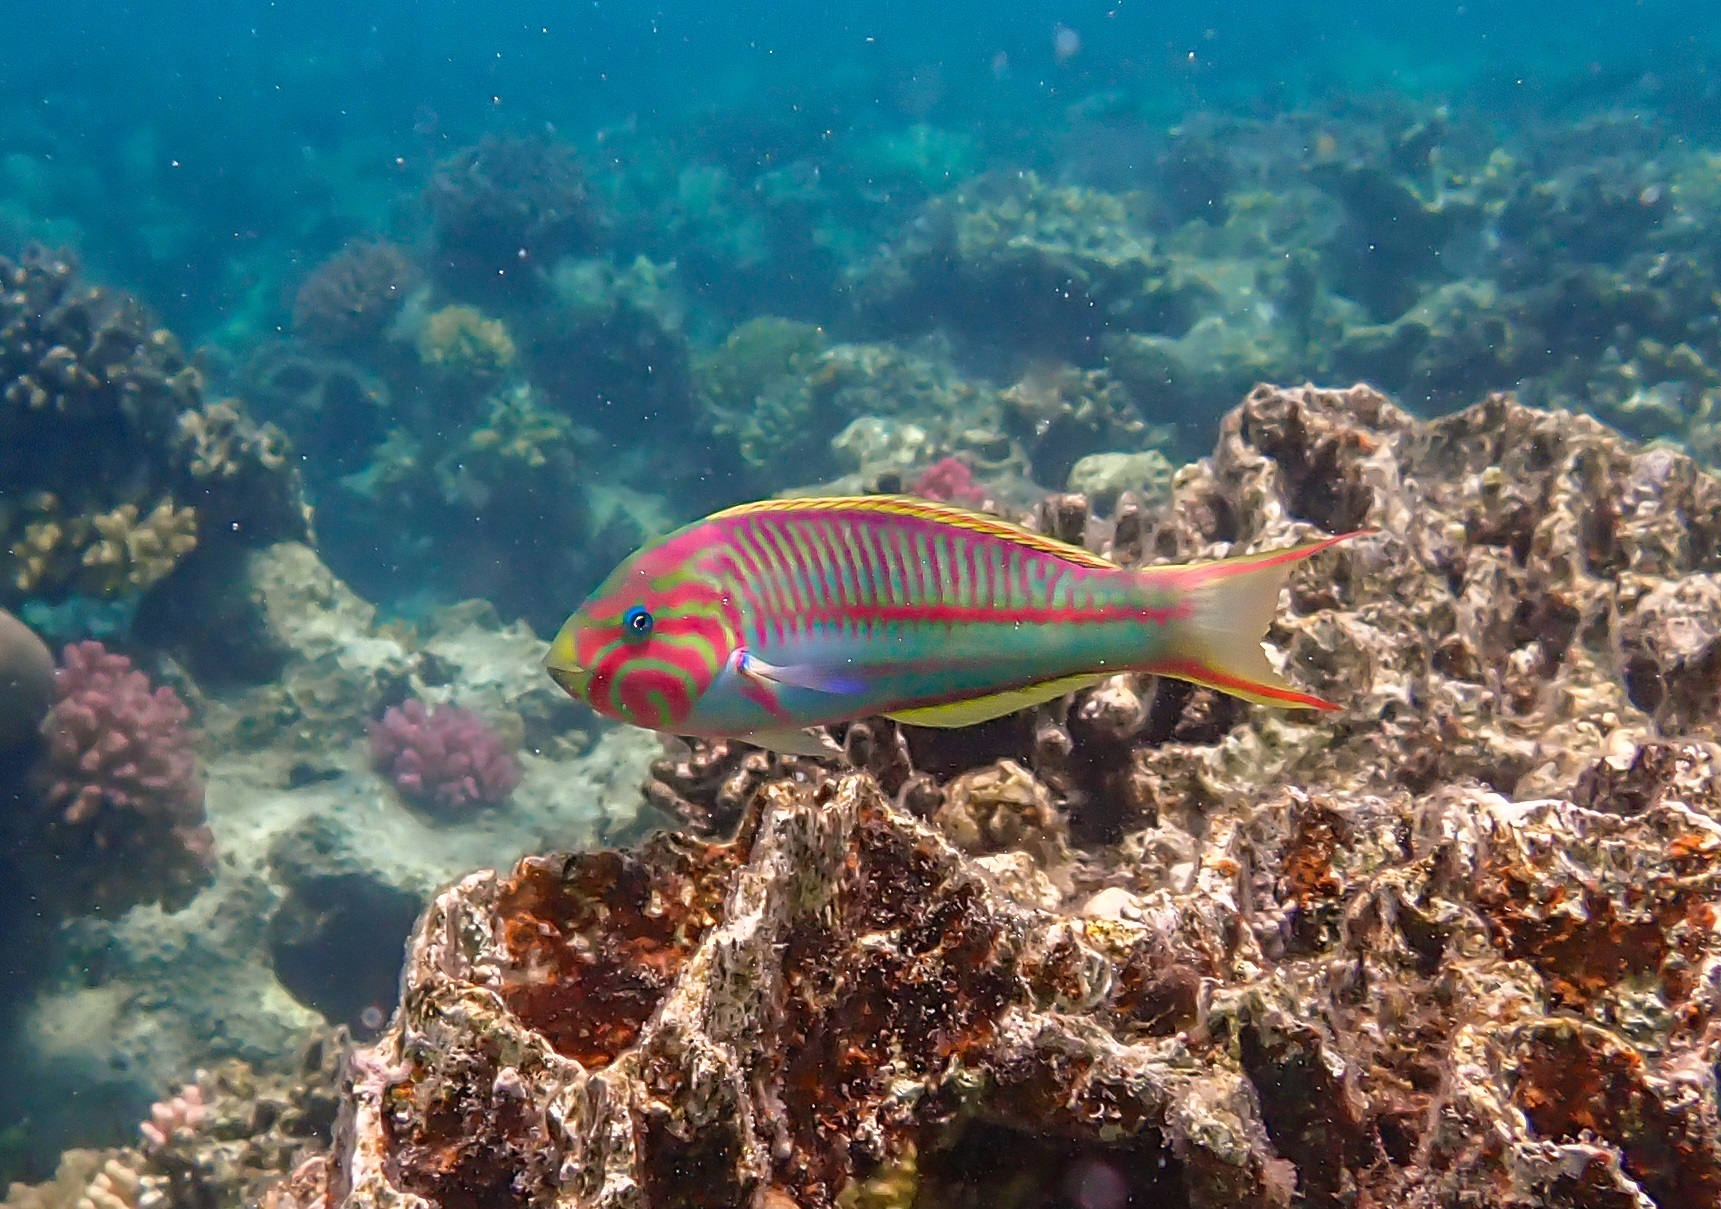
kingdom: Animalia
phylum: Chordata
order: Perciformes
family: Labridae
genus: Thalassoma
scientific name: Thalassoma rueppellii
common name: Klunzinger's wrasse
